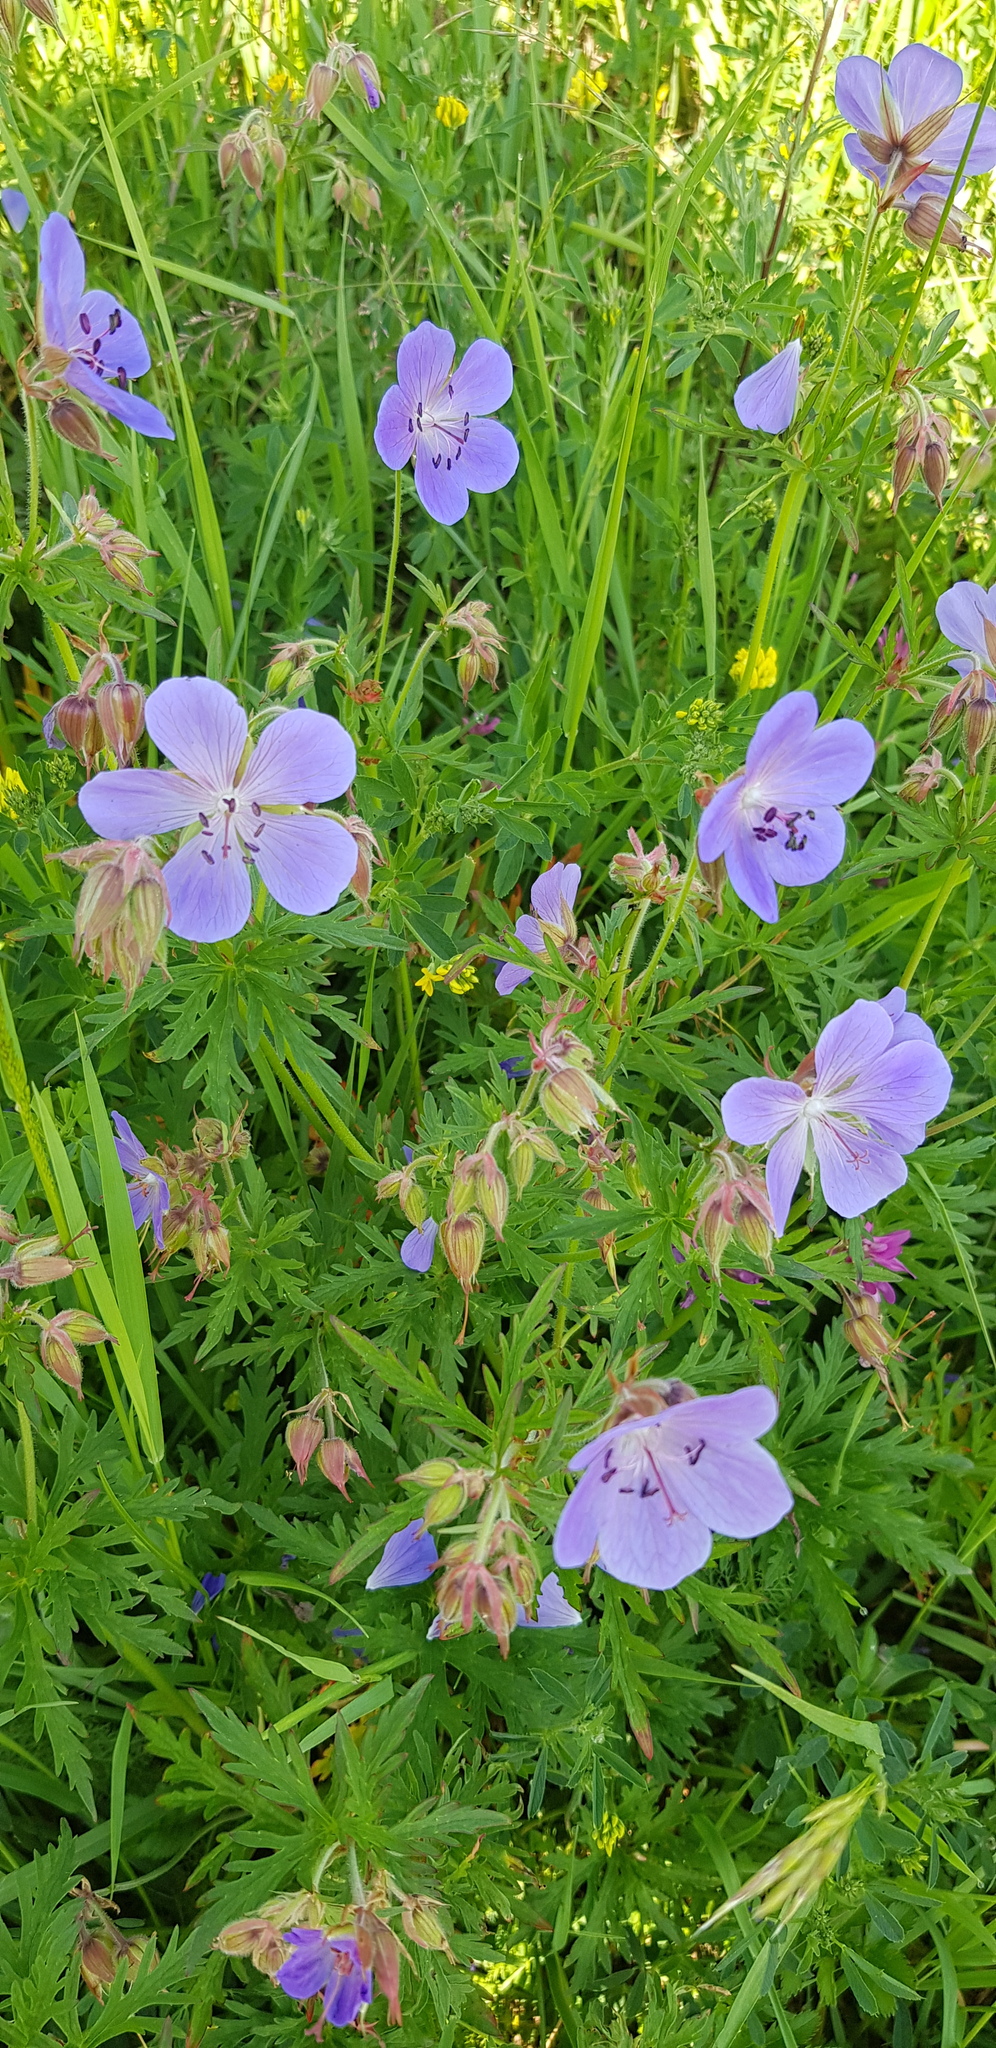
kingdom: Plantae
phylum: Tracheophyta
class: Magnoliopsida
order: Geraniales
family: Geraniaceae
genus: Geranium
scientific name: Geranium pratense
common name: Meadow crane's-bill
